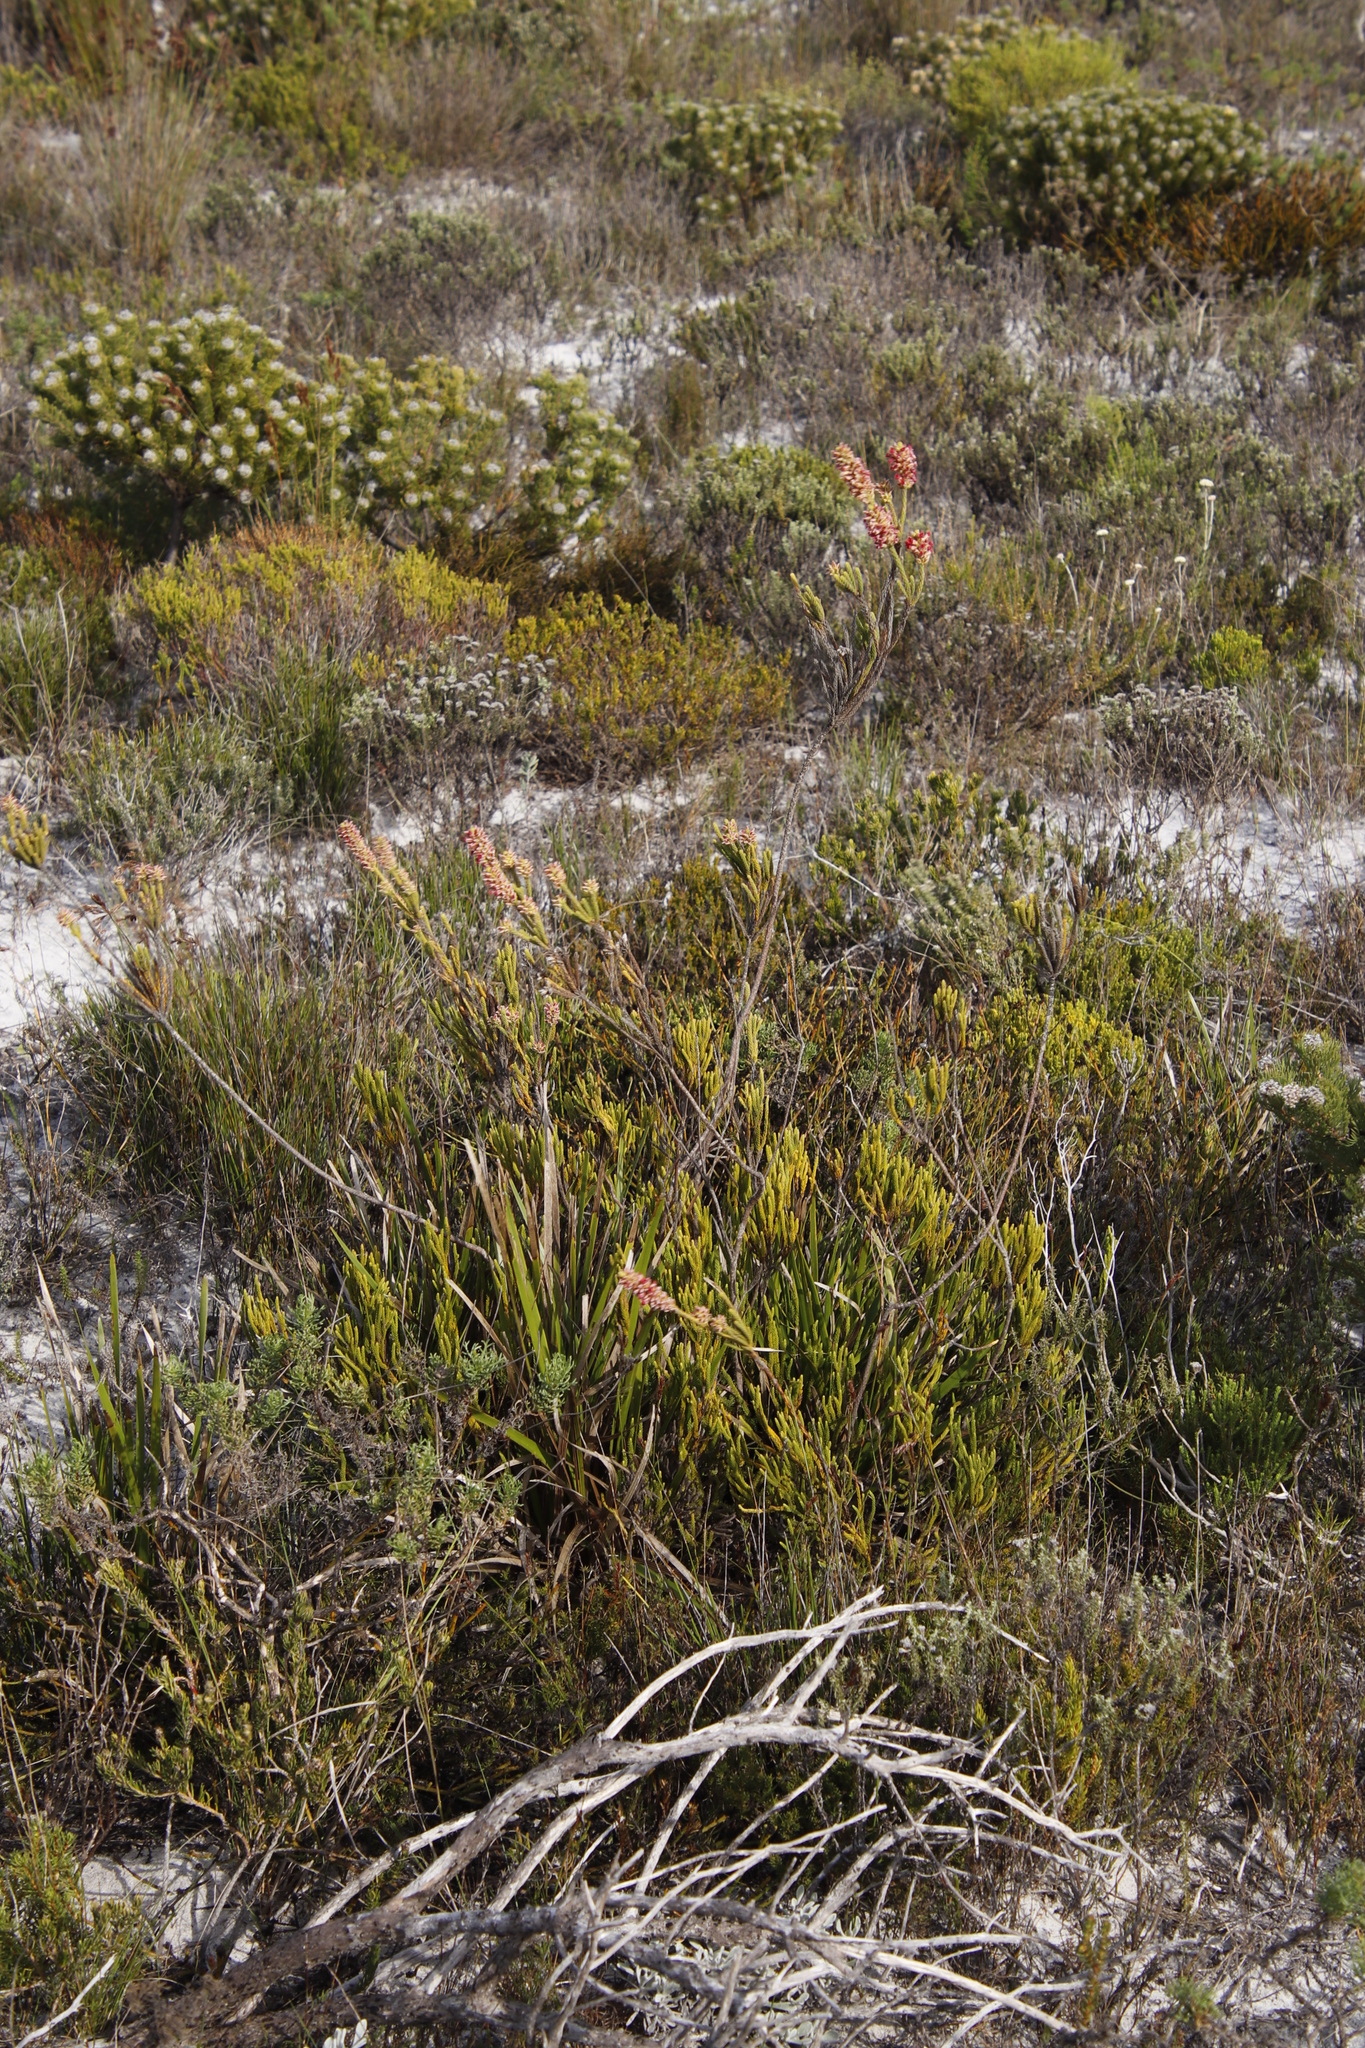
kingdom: Plantae
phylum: Tracheophyta
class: Magnoliopsida
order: Bruniales
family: Bruniaceae
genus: Audouinia
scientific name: Audouinia capitata
